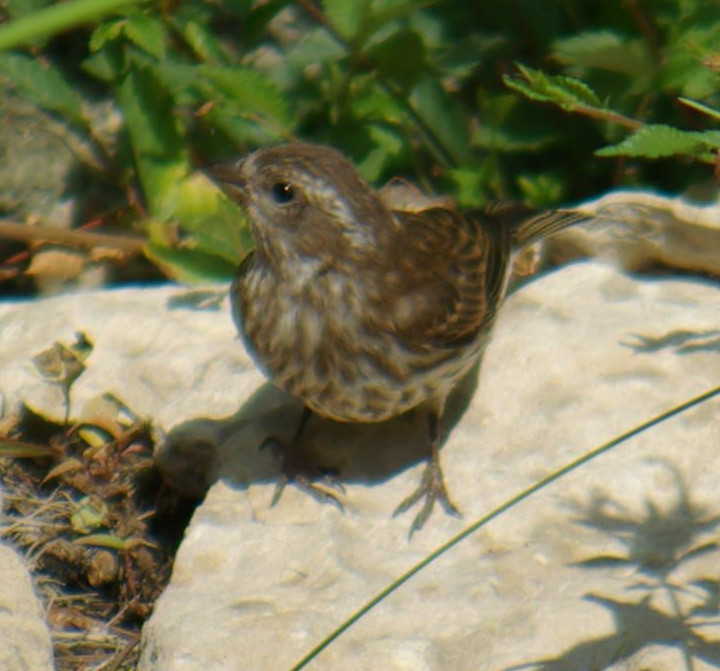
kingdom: Animalia
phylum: Chordata
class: Aves
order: Passeriformes
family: Fringillidae
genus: Haemorhous
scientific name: Haemorhous purpureus
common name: Purple finch
